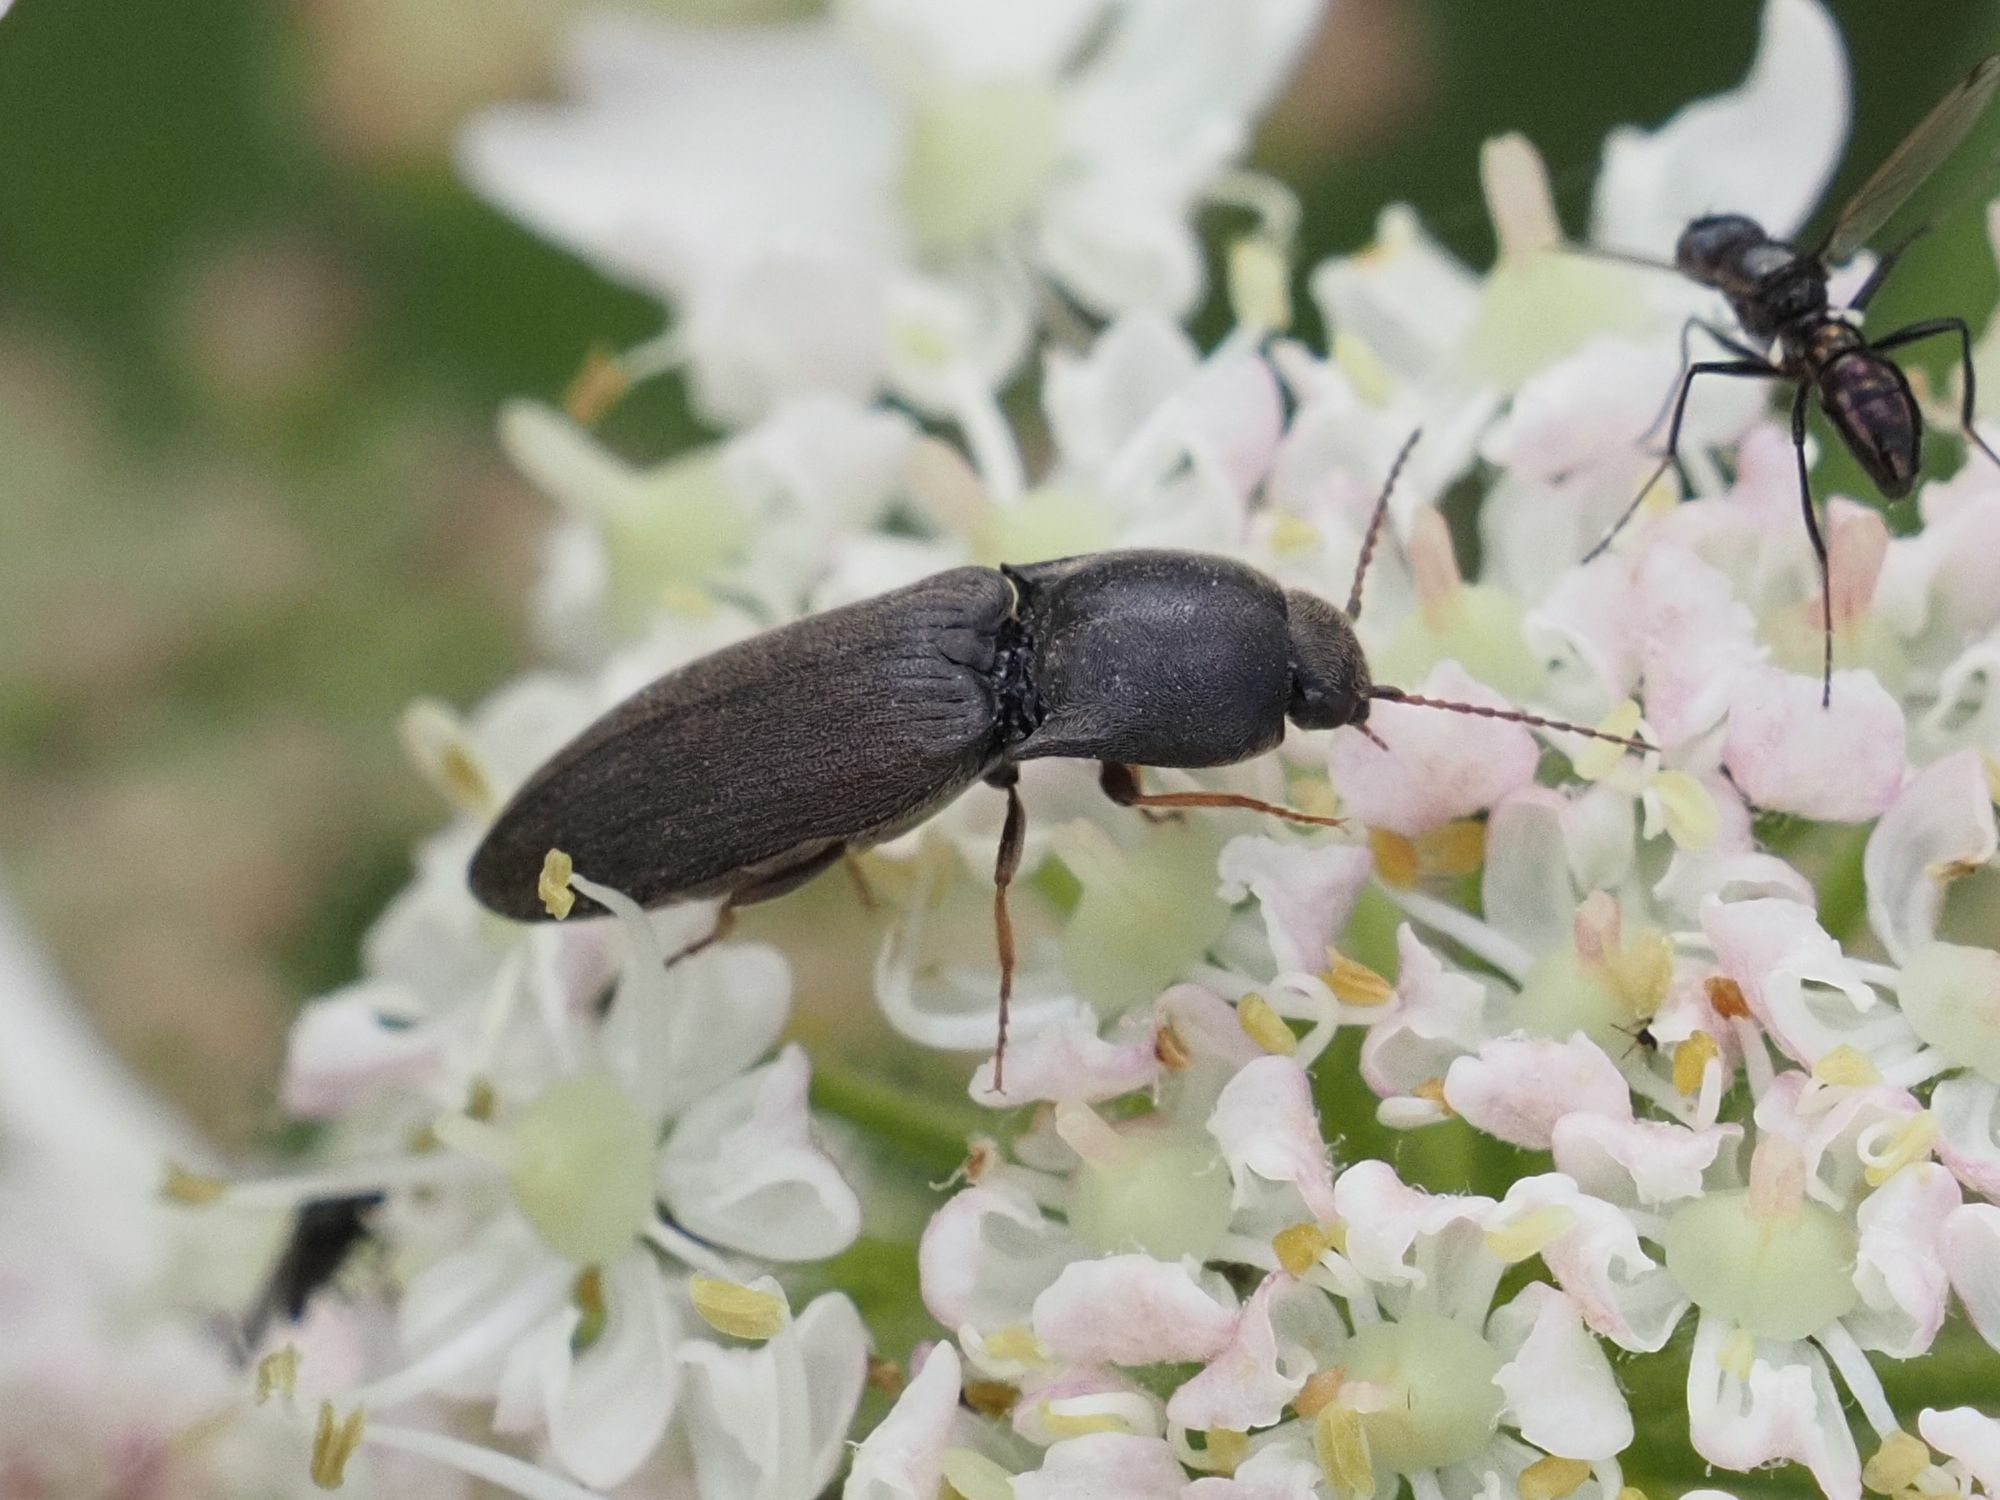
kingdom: Animalia
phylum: Arthropoda
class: Insecta
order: Coleoptera
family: Elateridae
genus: Agriotes
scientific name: Agriotes ustulatus
